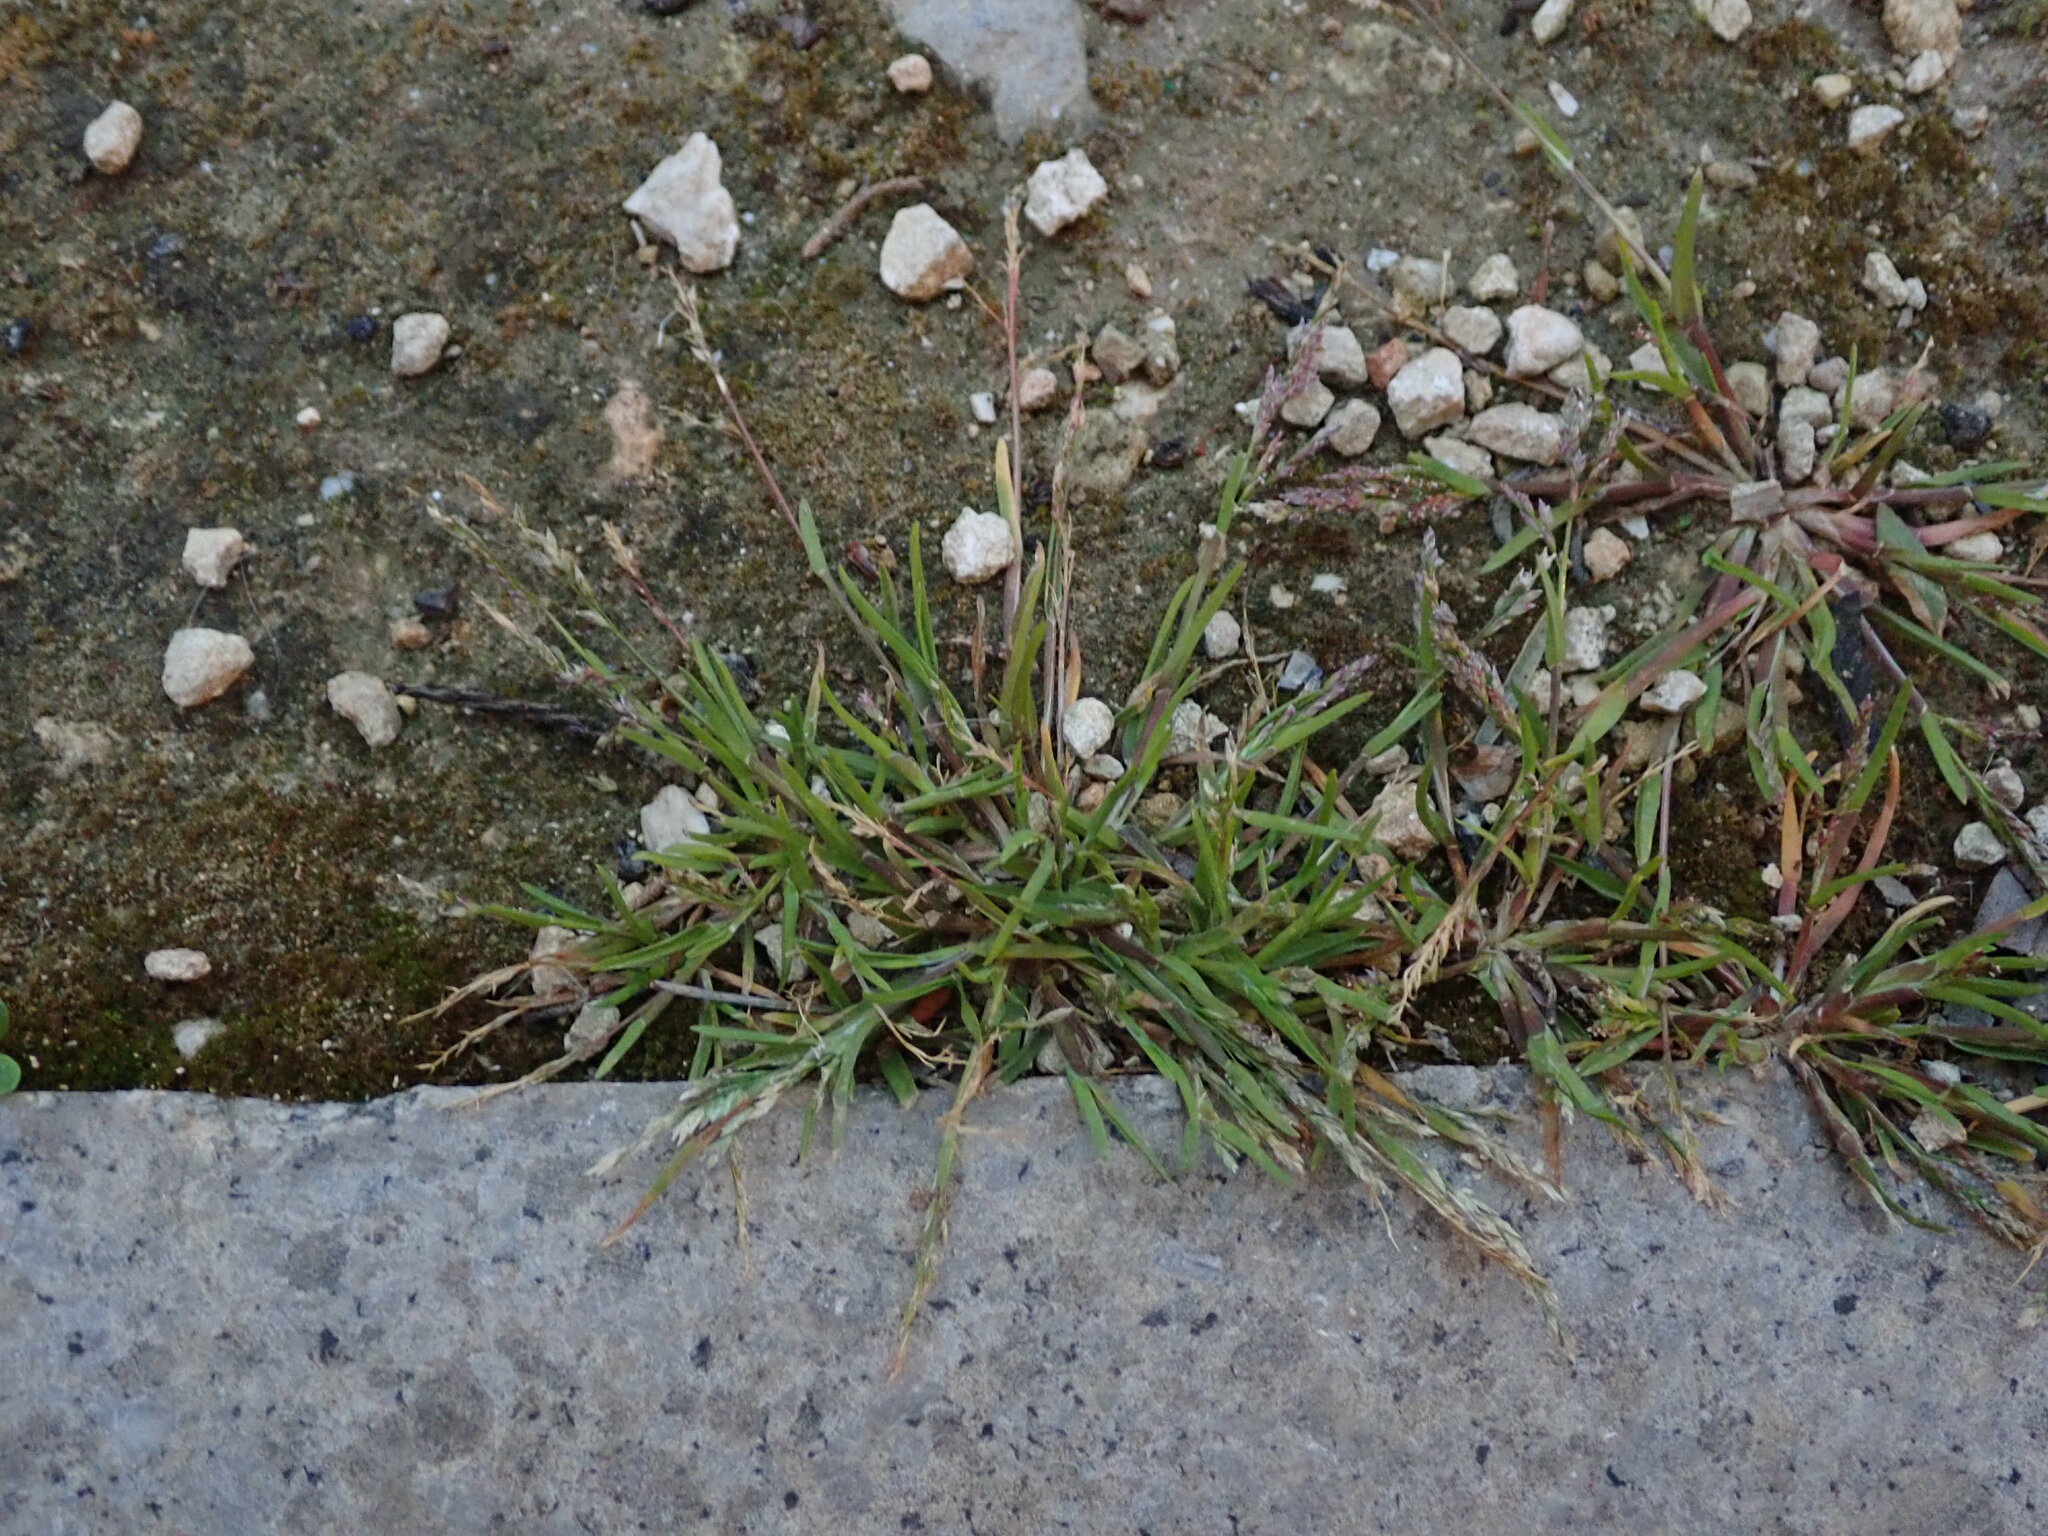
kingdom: Plantae
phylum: Tracheophyta
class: Liliopsida
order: Poales
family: Poaceae
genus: Poa
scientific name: Poa annua
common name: Annual bluegrass
